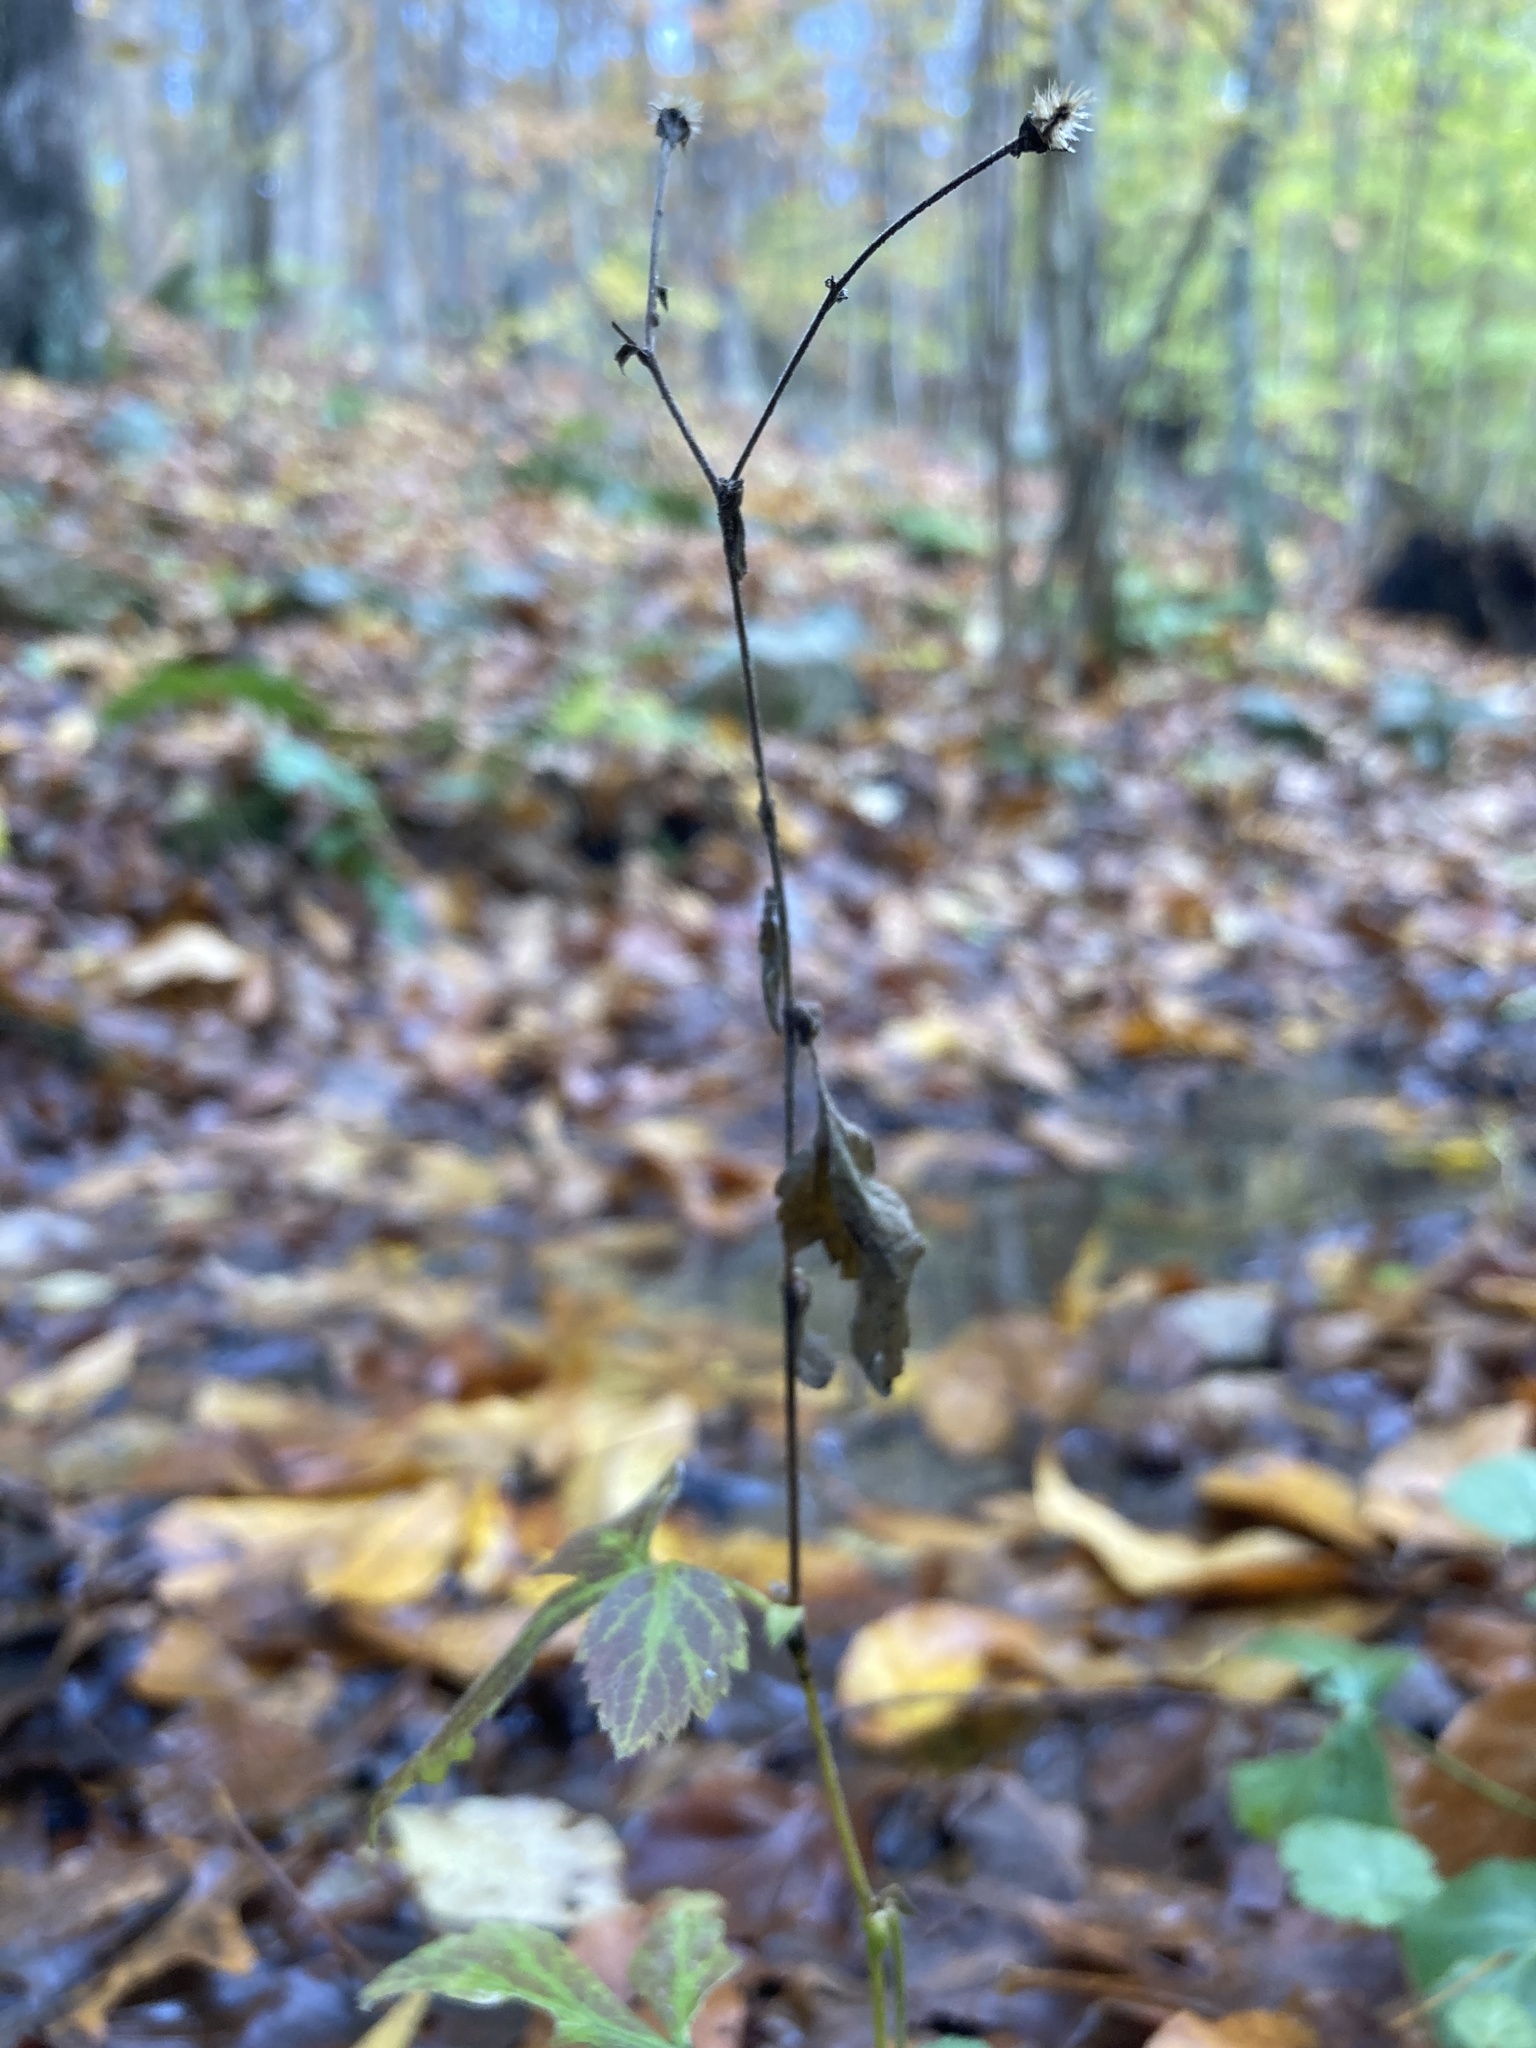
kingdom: Plantae
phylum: Tracheophyta
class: Magnoliopsida
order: Rosales
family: Rosaceae
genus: Geum
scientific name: Geum canadense
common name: White avens
